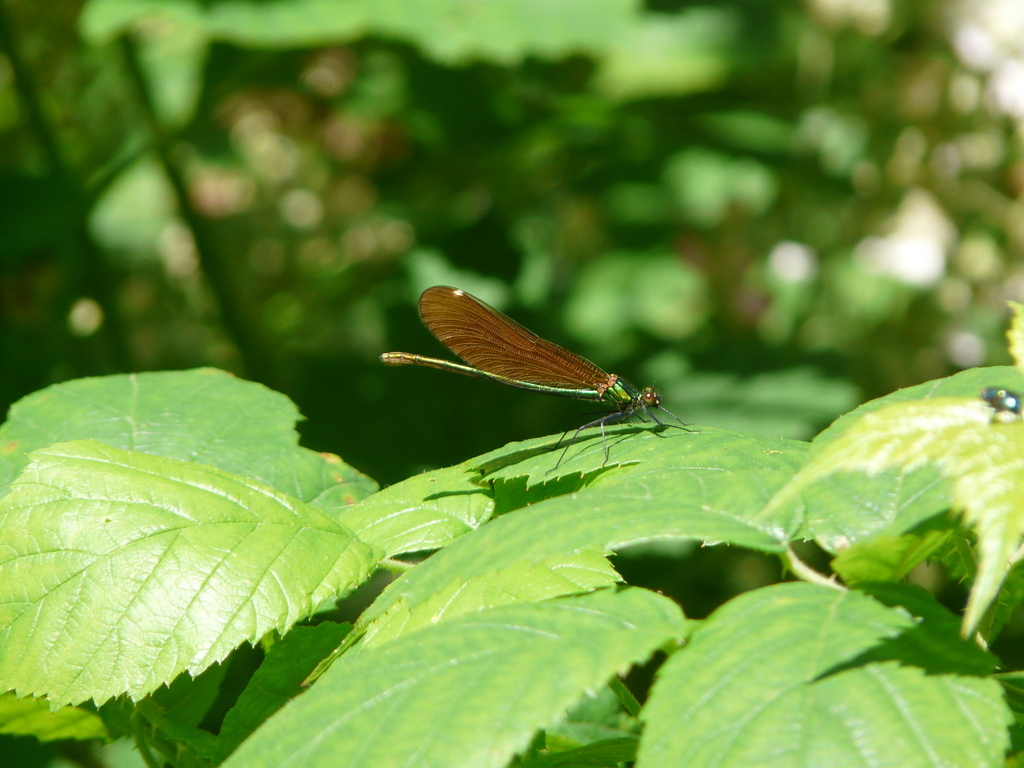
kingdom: Animalia
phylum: Arthropoda
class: Insecta
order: Odonata
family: Calopterygidae
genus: Calopteryx
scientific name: Calopteryx virgo
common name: Beautiful demoiselle
